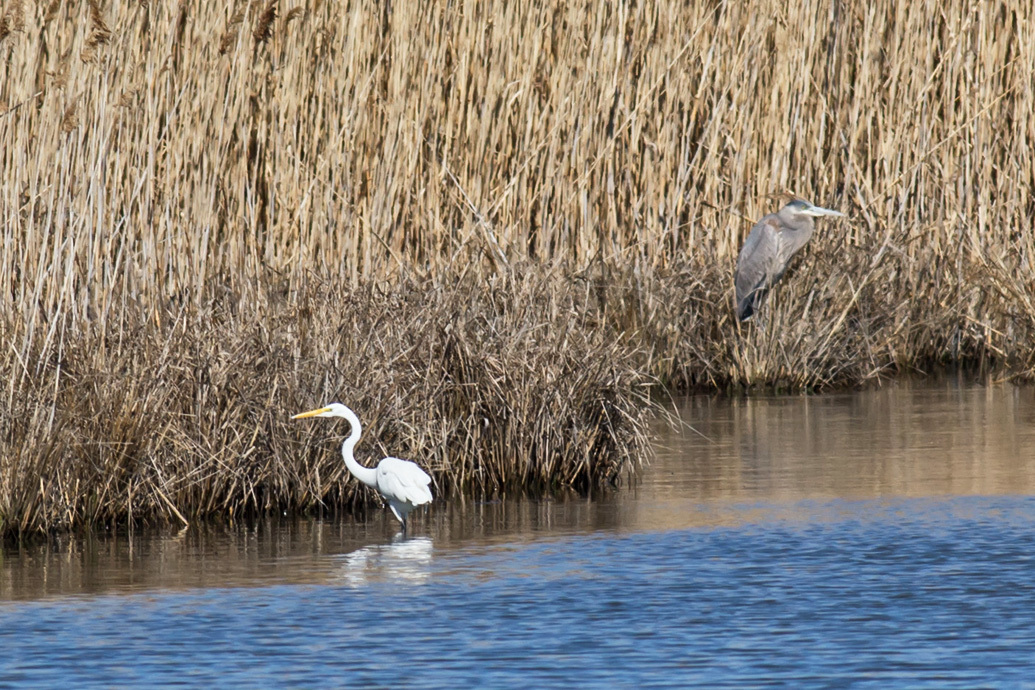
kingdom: Animalia
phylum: Chordata
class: Aves
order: Pelecaniformes
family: Ardeidae
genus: Ardea
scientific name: Ardea alba
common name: Great egret
